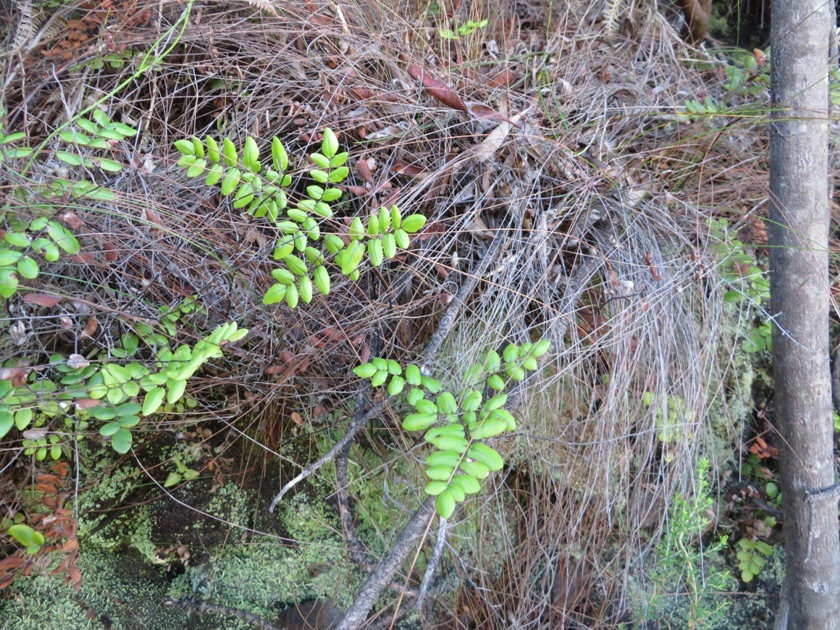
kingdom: Plantae
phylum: Tracheophyta
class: Polypodiopsida
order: Polypodiales
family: Pteridaceae
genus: Pellaea
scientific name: Pellaea pteroides
